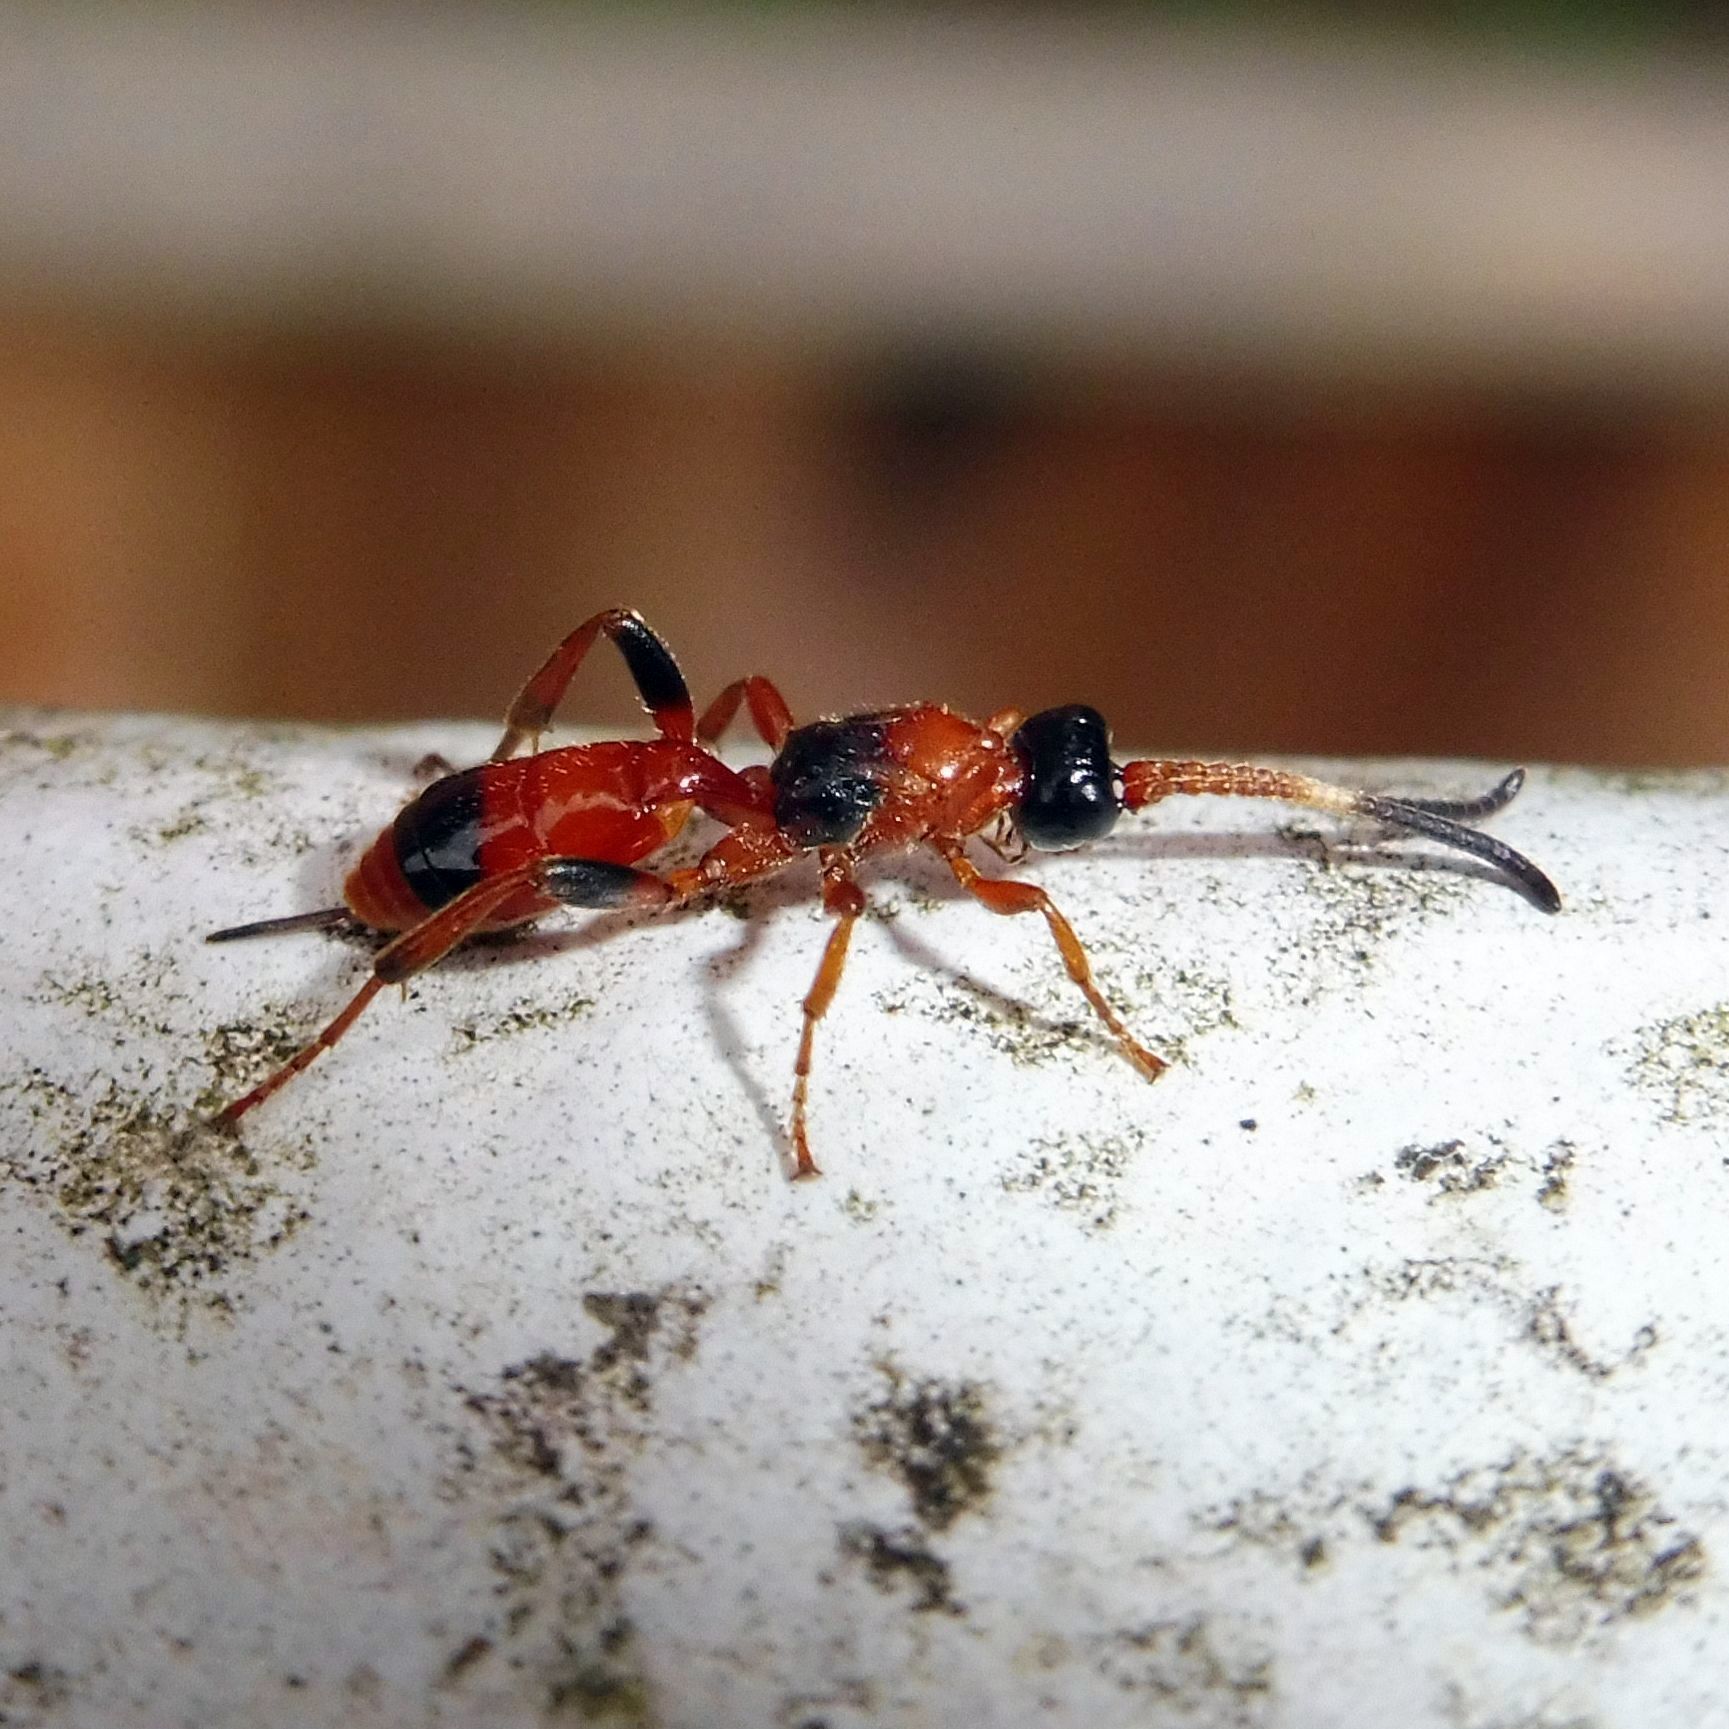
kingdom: Animalia
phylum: Arthropoda
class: Insecta
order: Hymenoptera
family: Ichneumonidae
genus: Aptesis
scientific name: Aptesis nigrocincta
